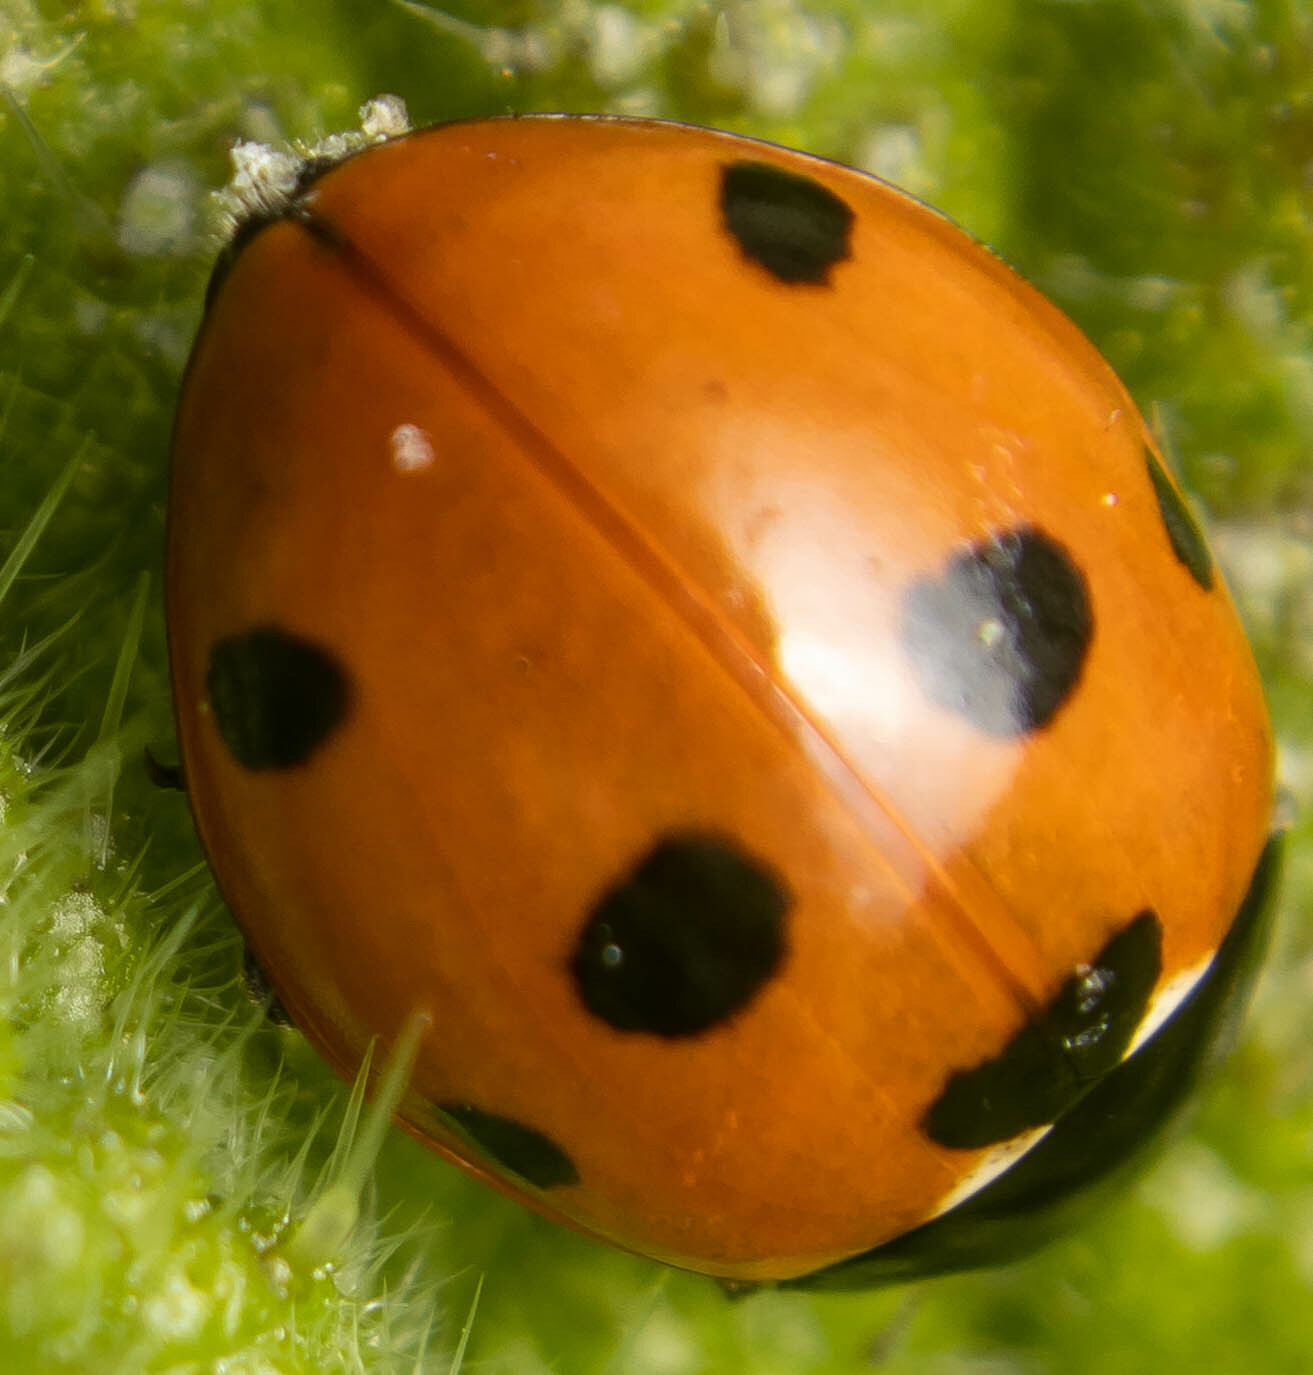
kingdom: Animalia
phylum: Arthropoda
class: Insecta
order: Coleoptera
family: Coccinellidae
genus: Coccinella
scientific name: Coccinella septempunctata
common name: Sevenspotted lady beetle
